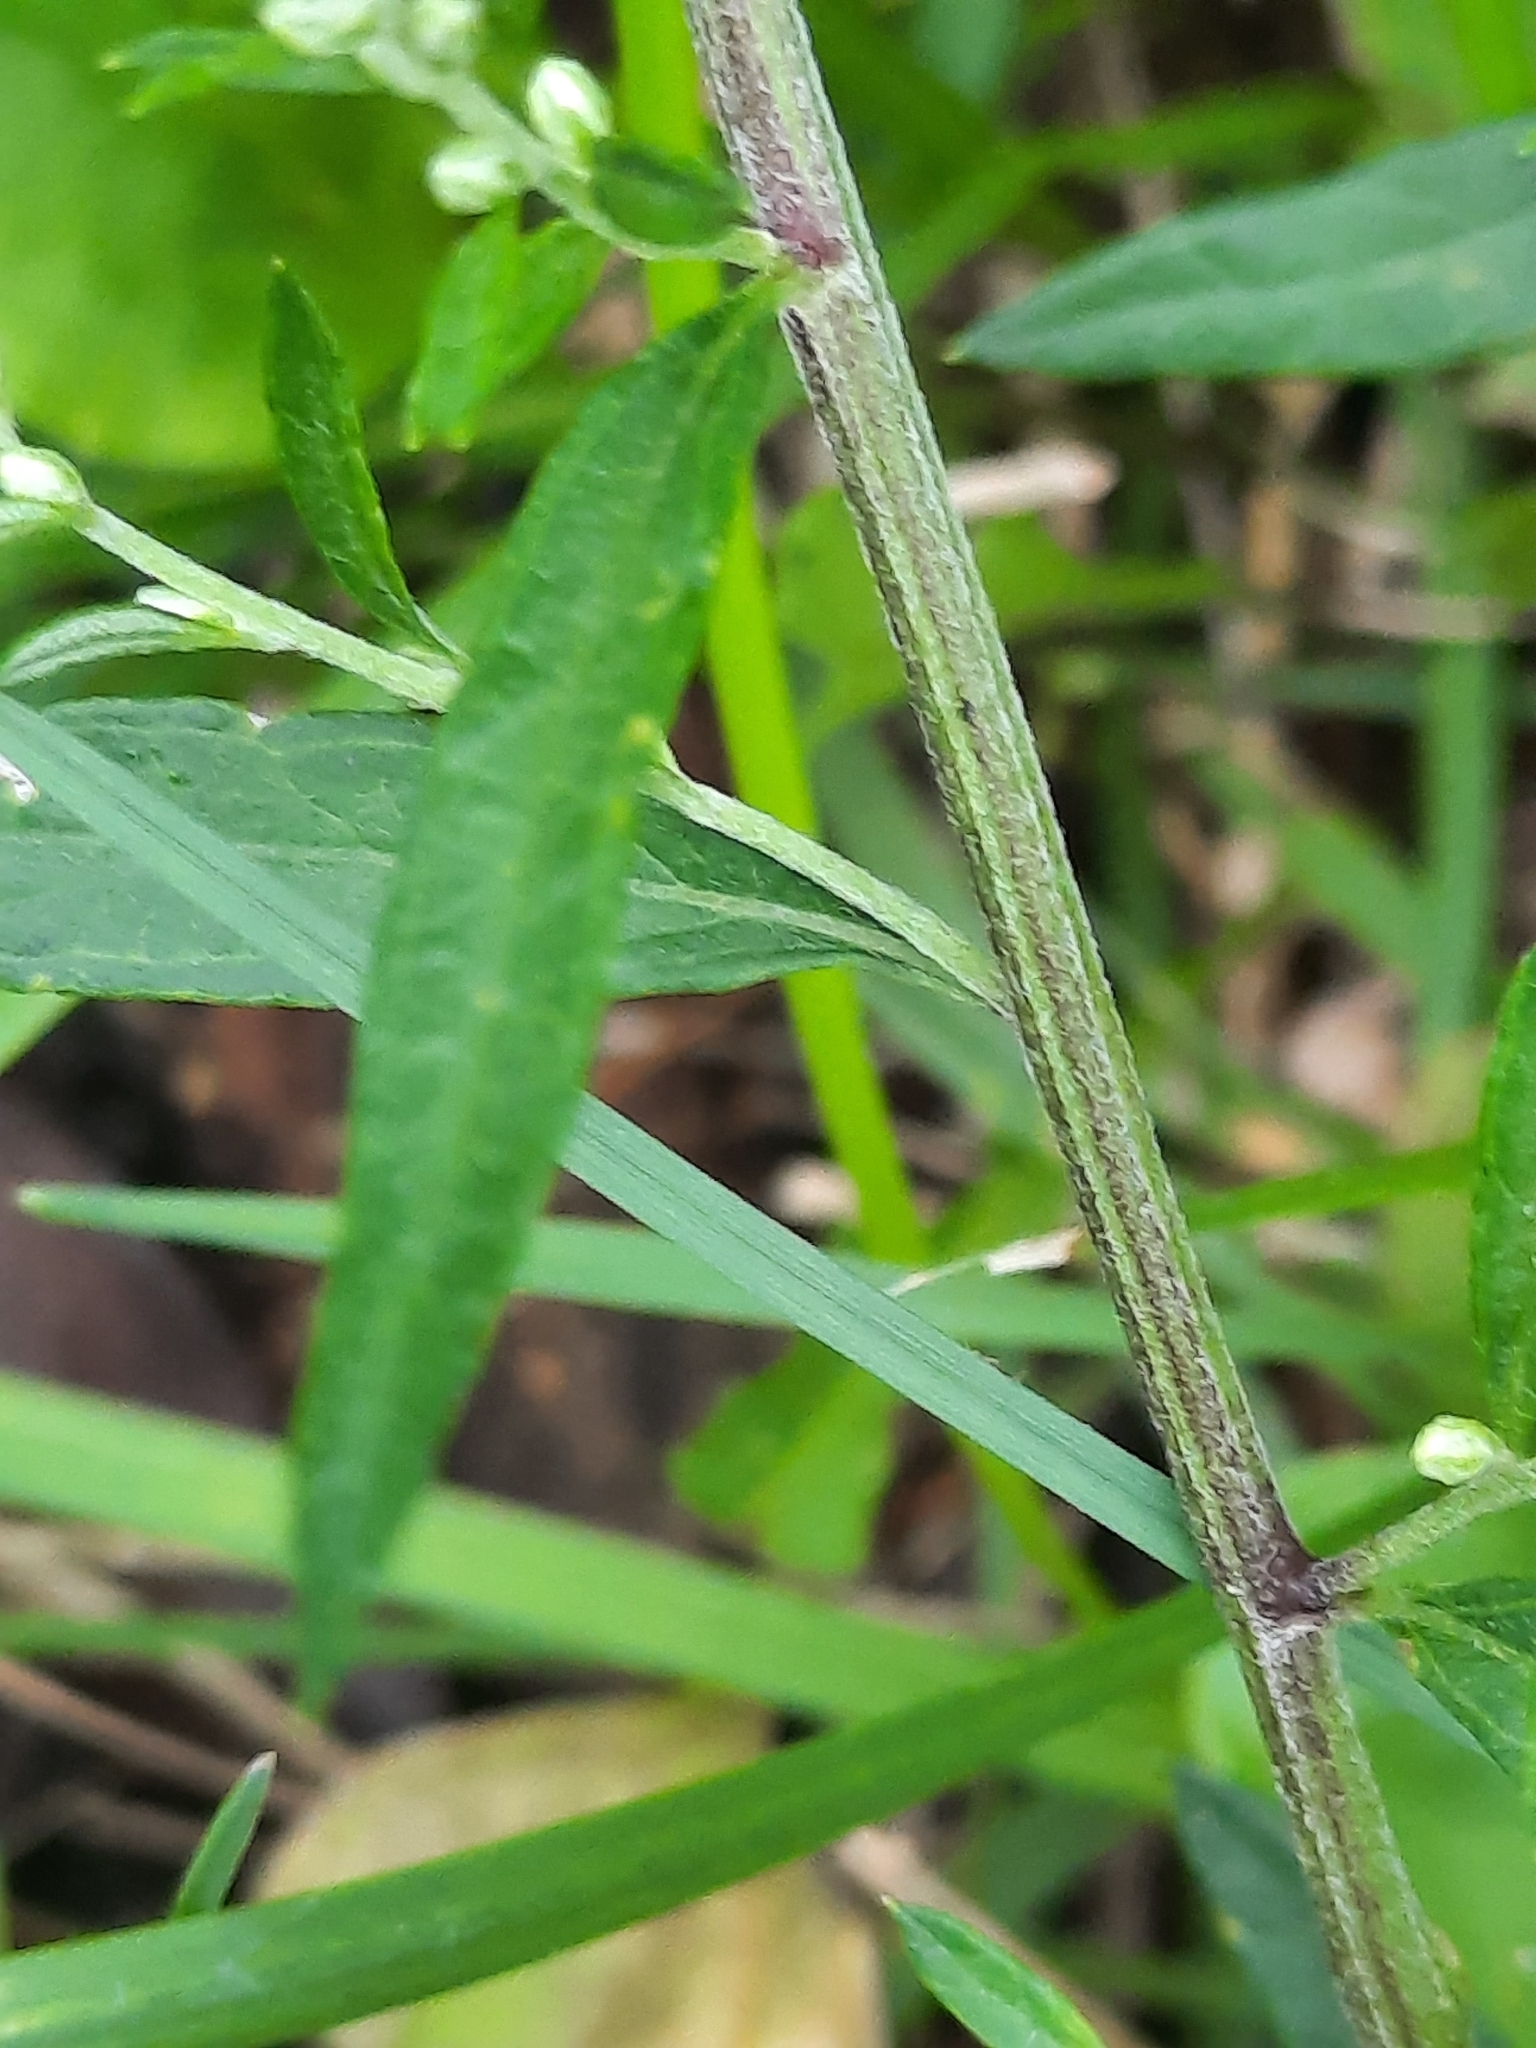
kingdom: Plantae
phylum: Tracheophyta
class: Magnoliopsida
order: Asterales
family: Asteraceae
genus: Artemisia
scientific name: Artemisia vulgaris
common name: Mugwort
